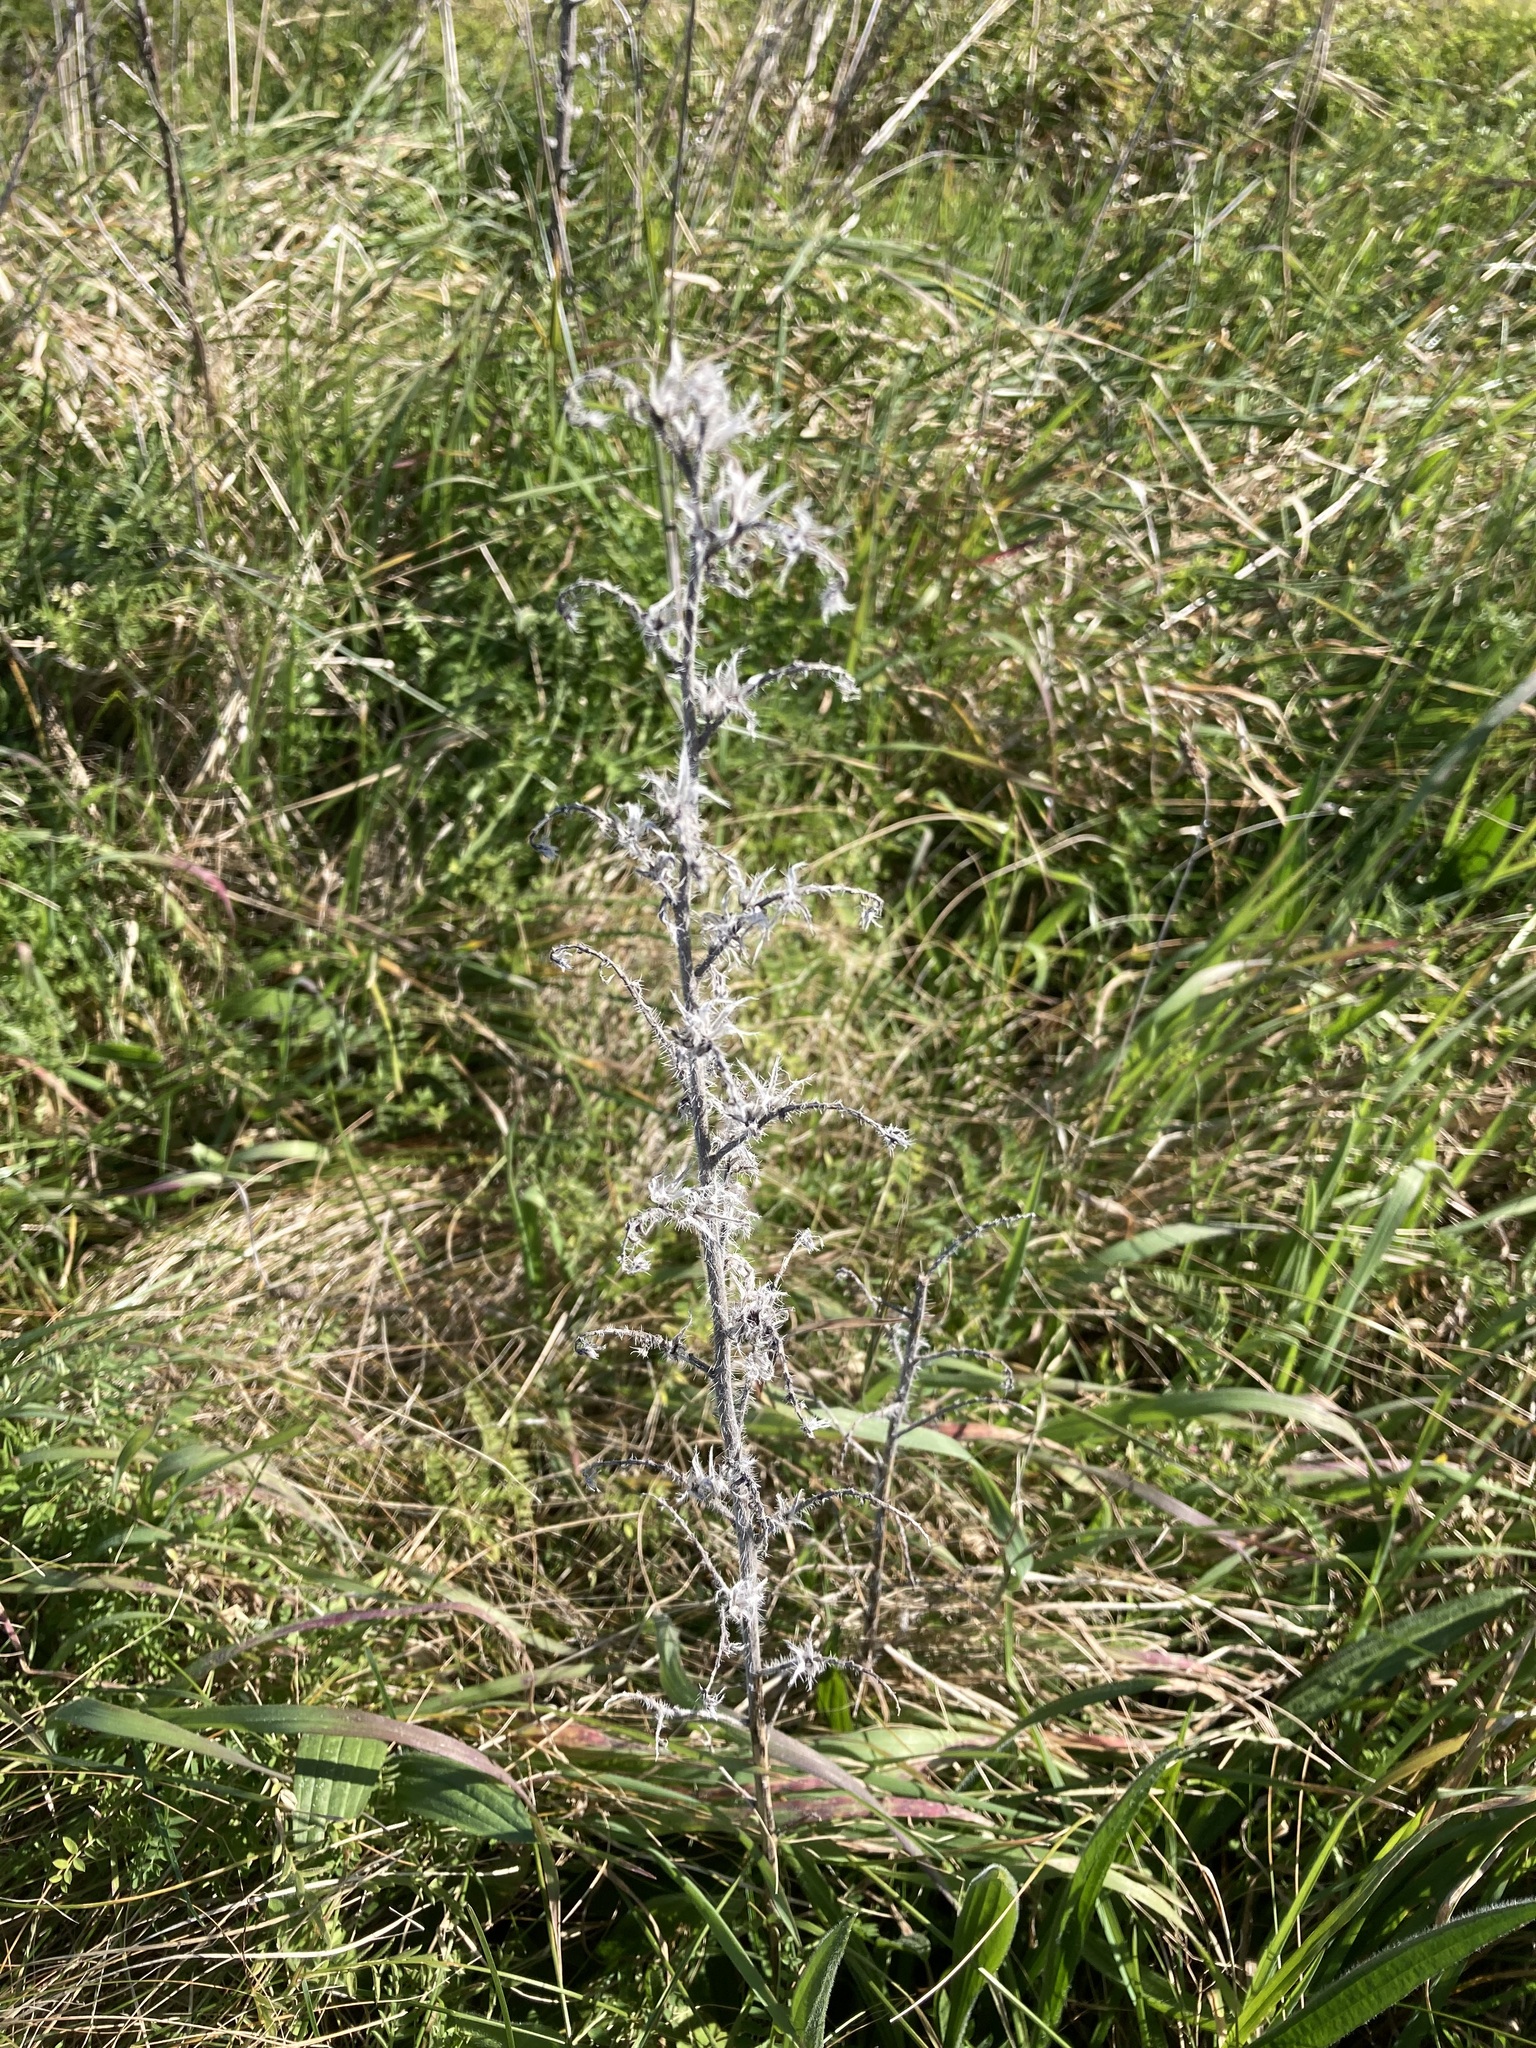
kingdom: Plantae
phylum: Tracheophyta
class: Magnoliopsida
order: Boraginales
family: Boraginaceae
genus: Echium
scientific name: Echium vulgare
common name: Common viper's bugloss
